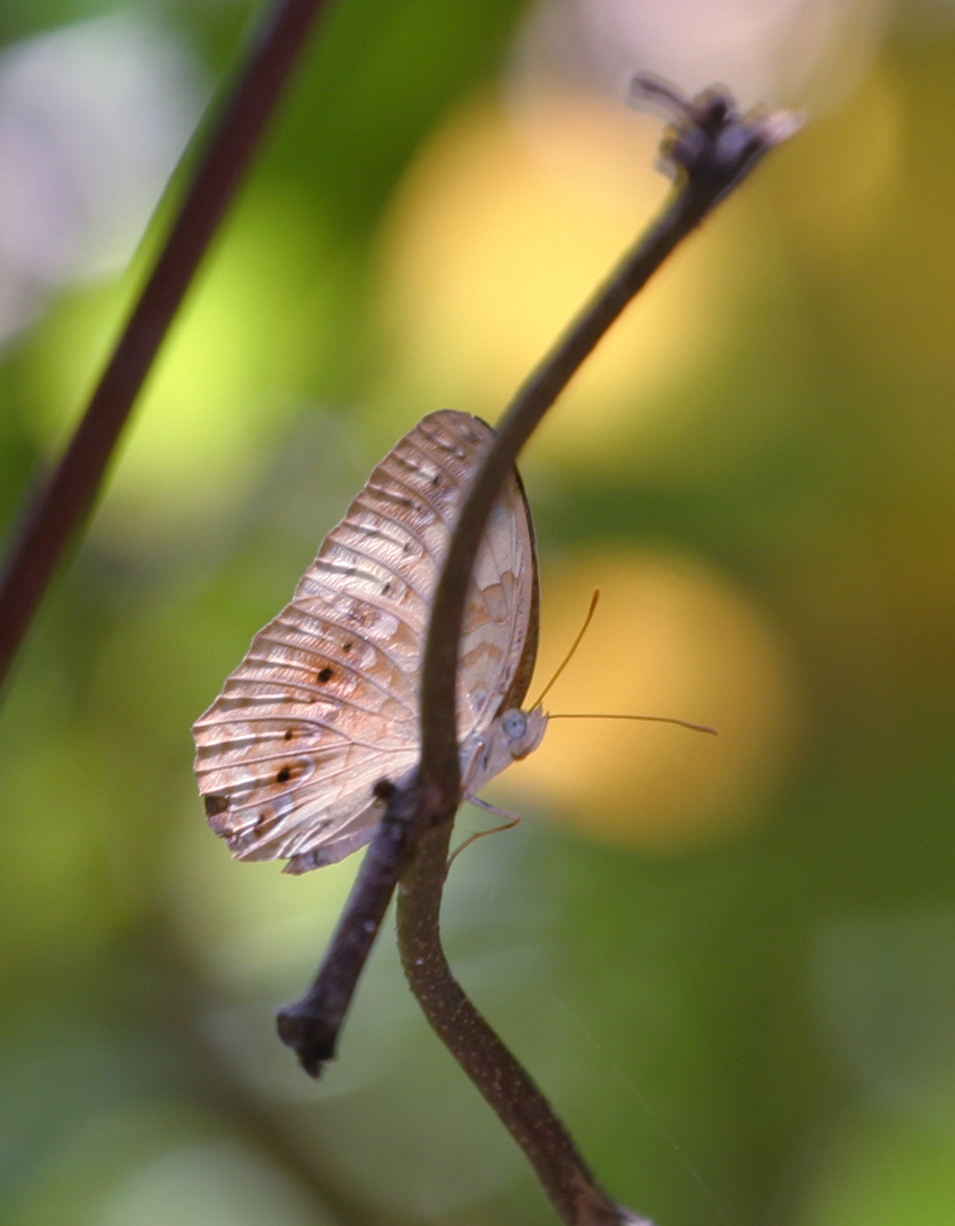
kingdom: Animalia
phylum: Arthropoda
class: Insecta
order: Lepidoptera
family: Nymphalidae
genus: Cupha
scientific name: Cupha erymanthis
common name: Rustic
